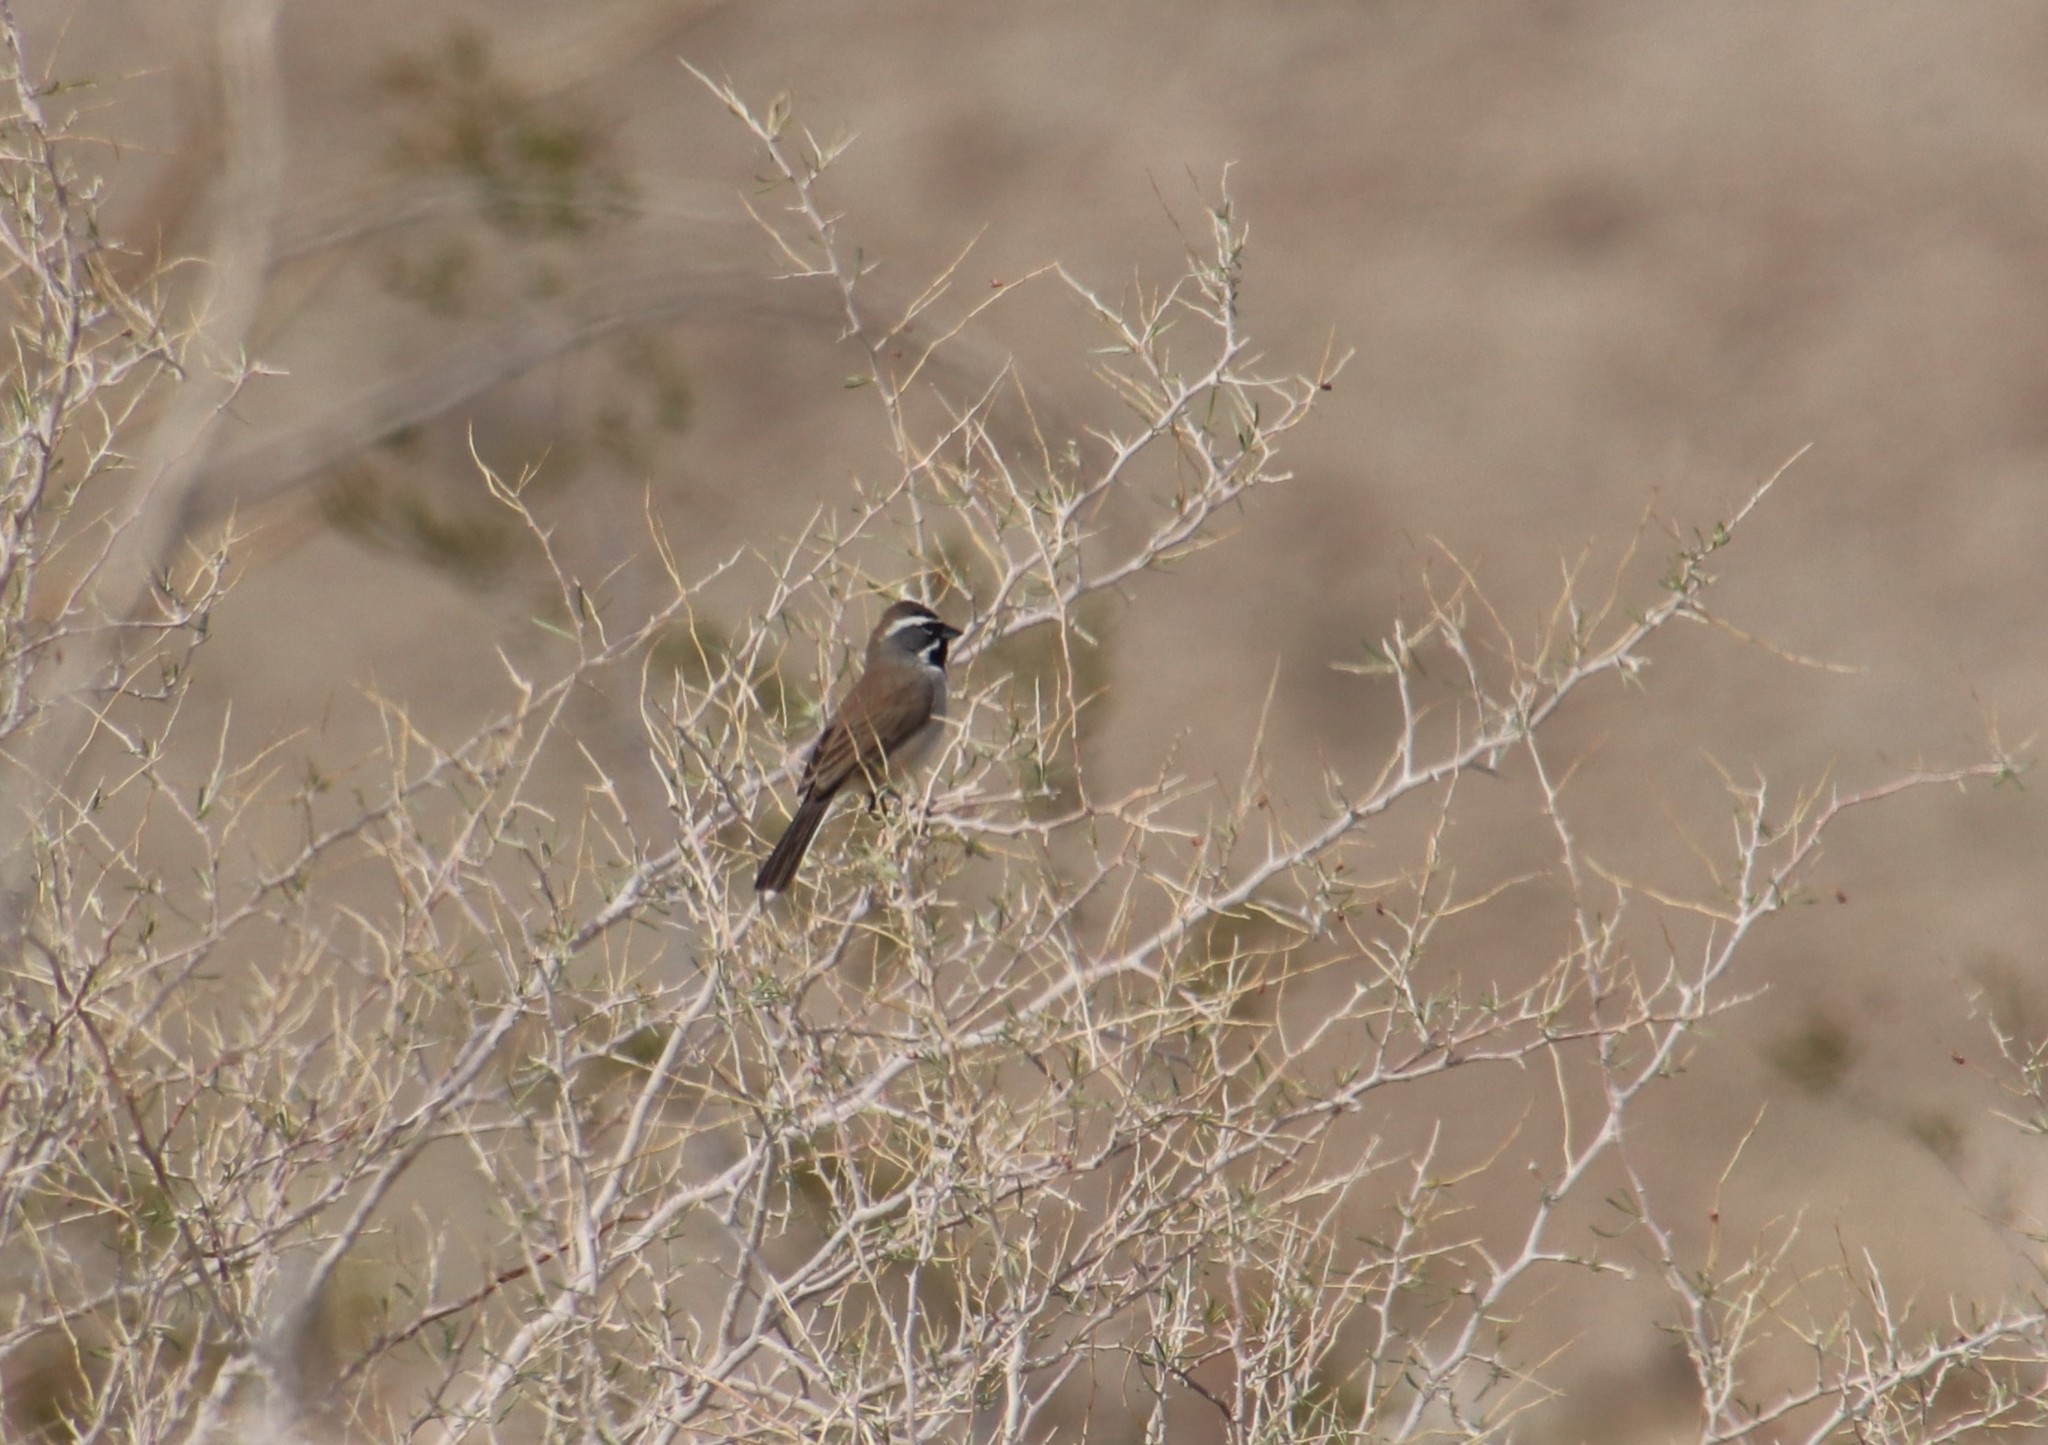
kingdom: Animalia
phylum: Chordata
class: Aves
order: Passeriformes
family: Passerellidae
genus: Amphispiza
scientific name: Amphispiza bilineata
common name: Black-throated sparrow
